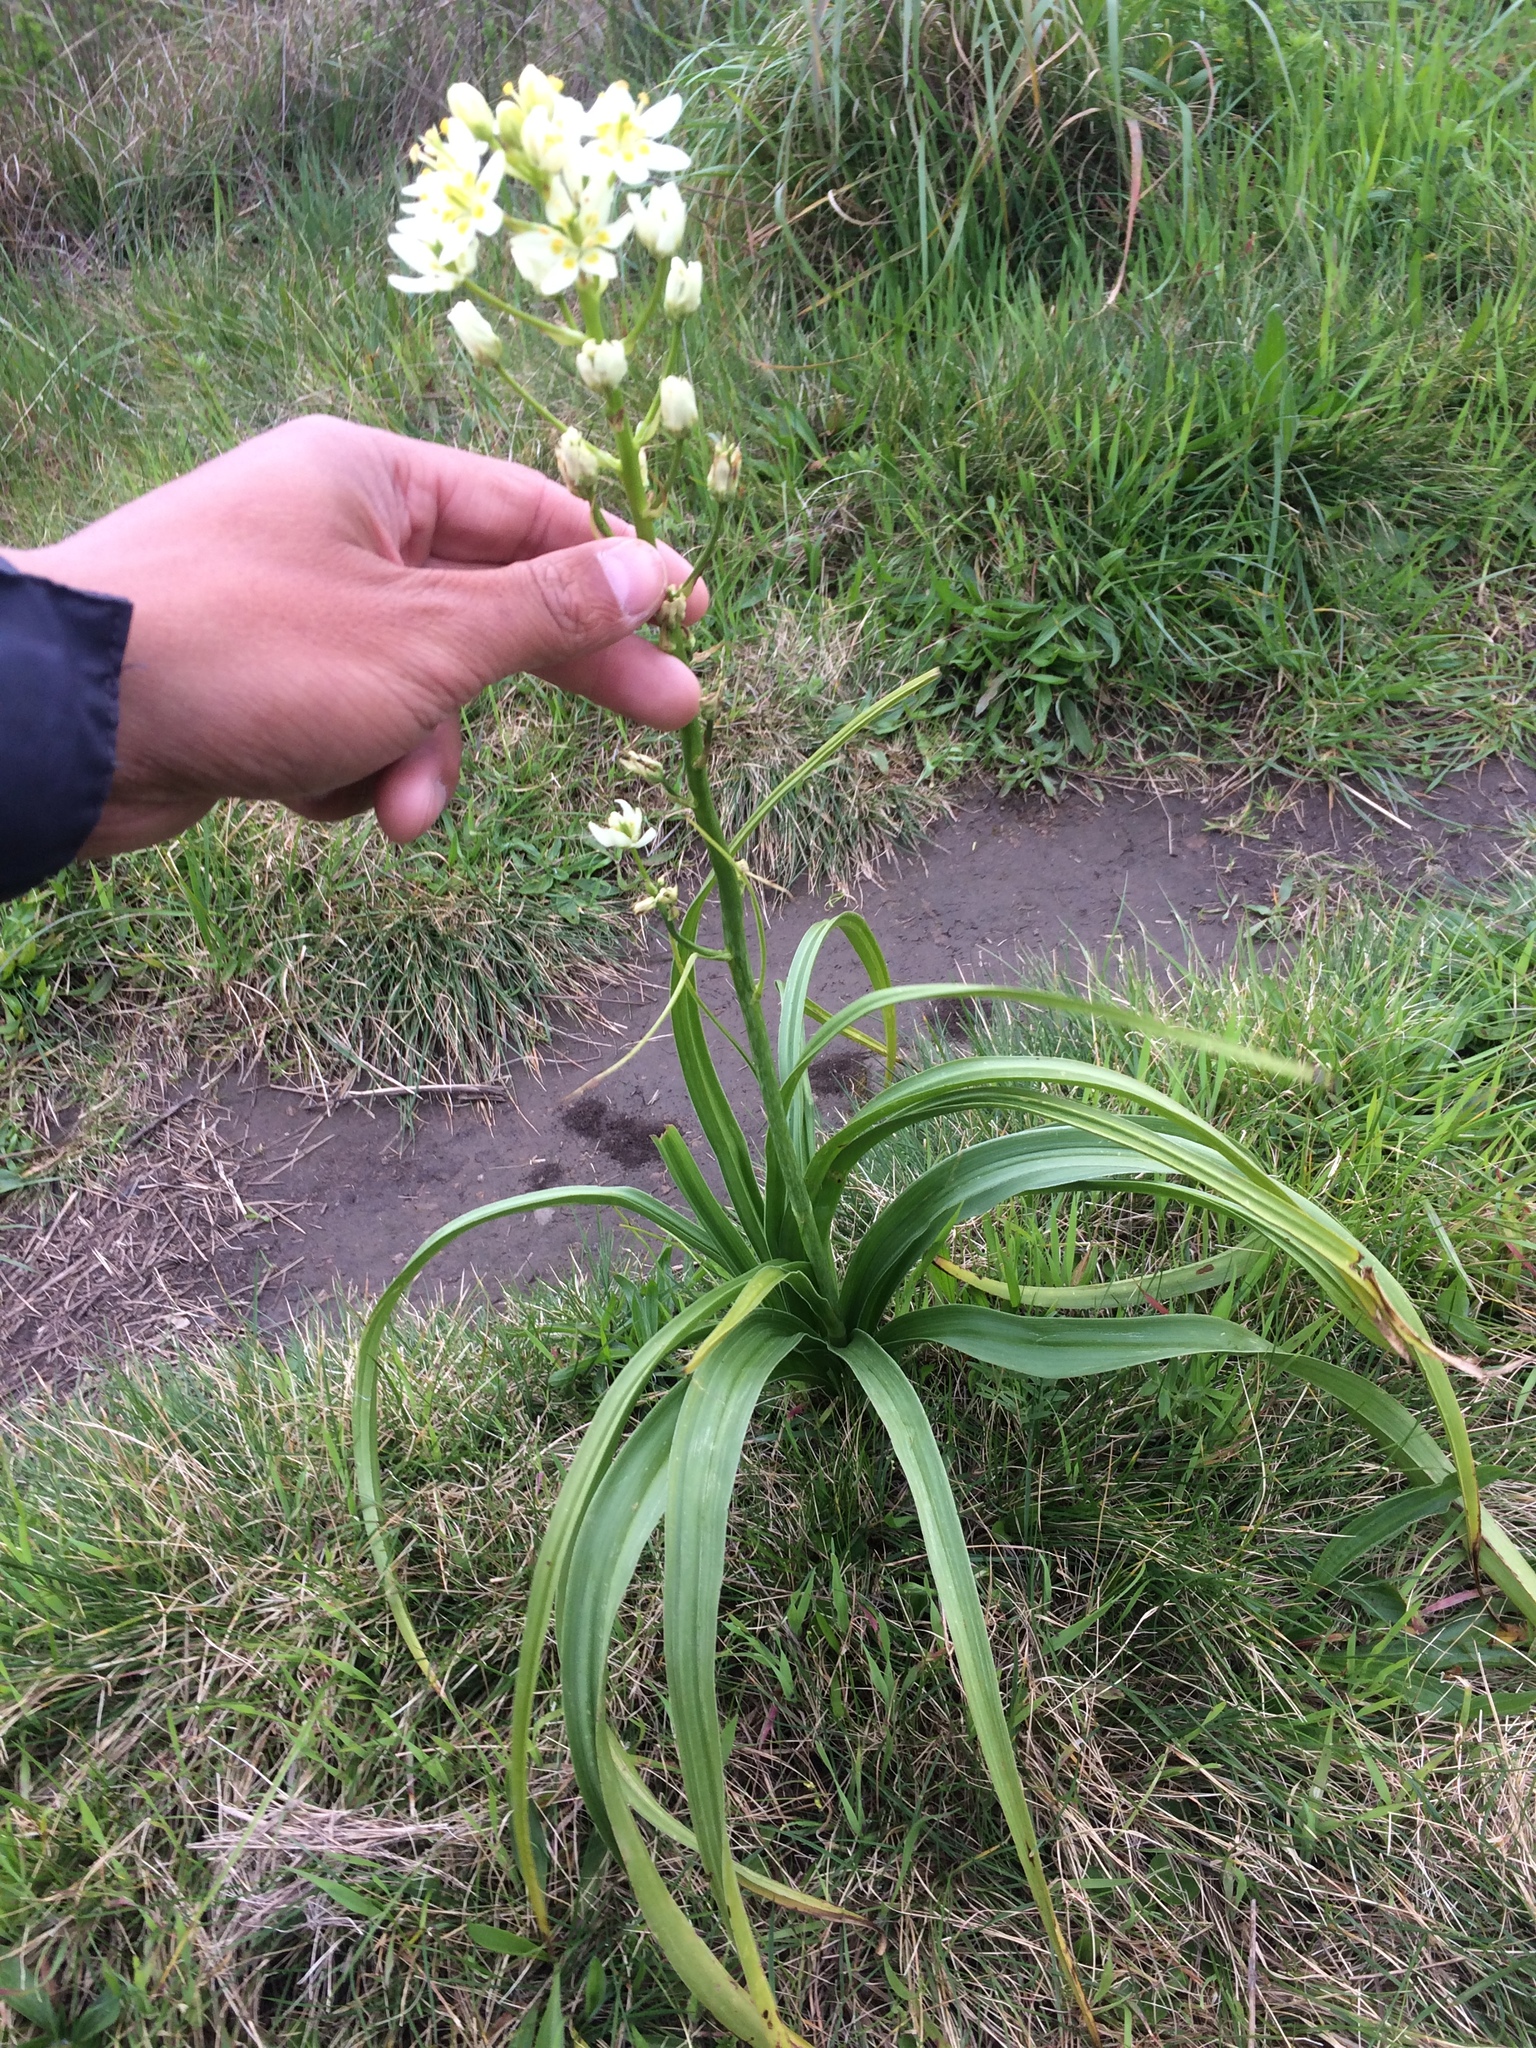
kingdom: Plantae
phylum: Tracheophyta
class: Liliopsida
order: Liliales
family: Melanthiaceae
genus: Toxicoscordion
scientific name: Toxicoscordion fremontii
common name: Fremont's death camas
